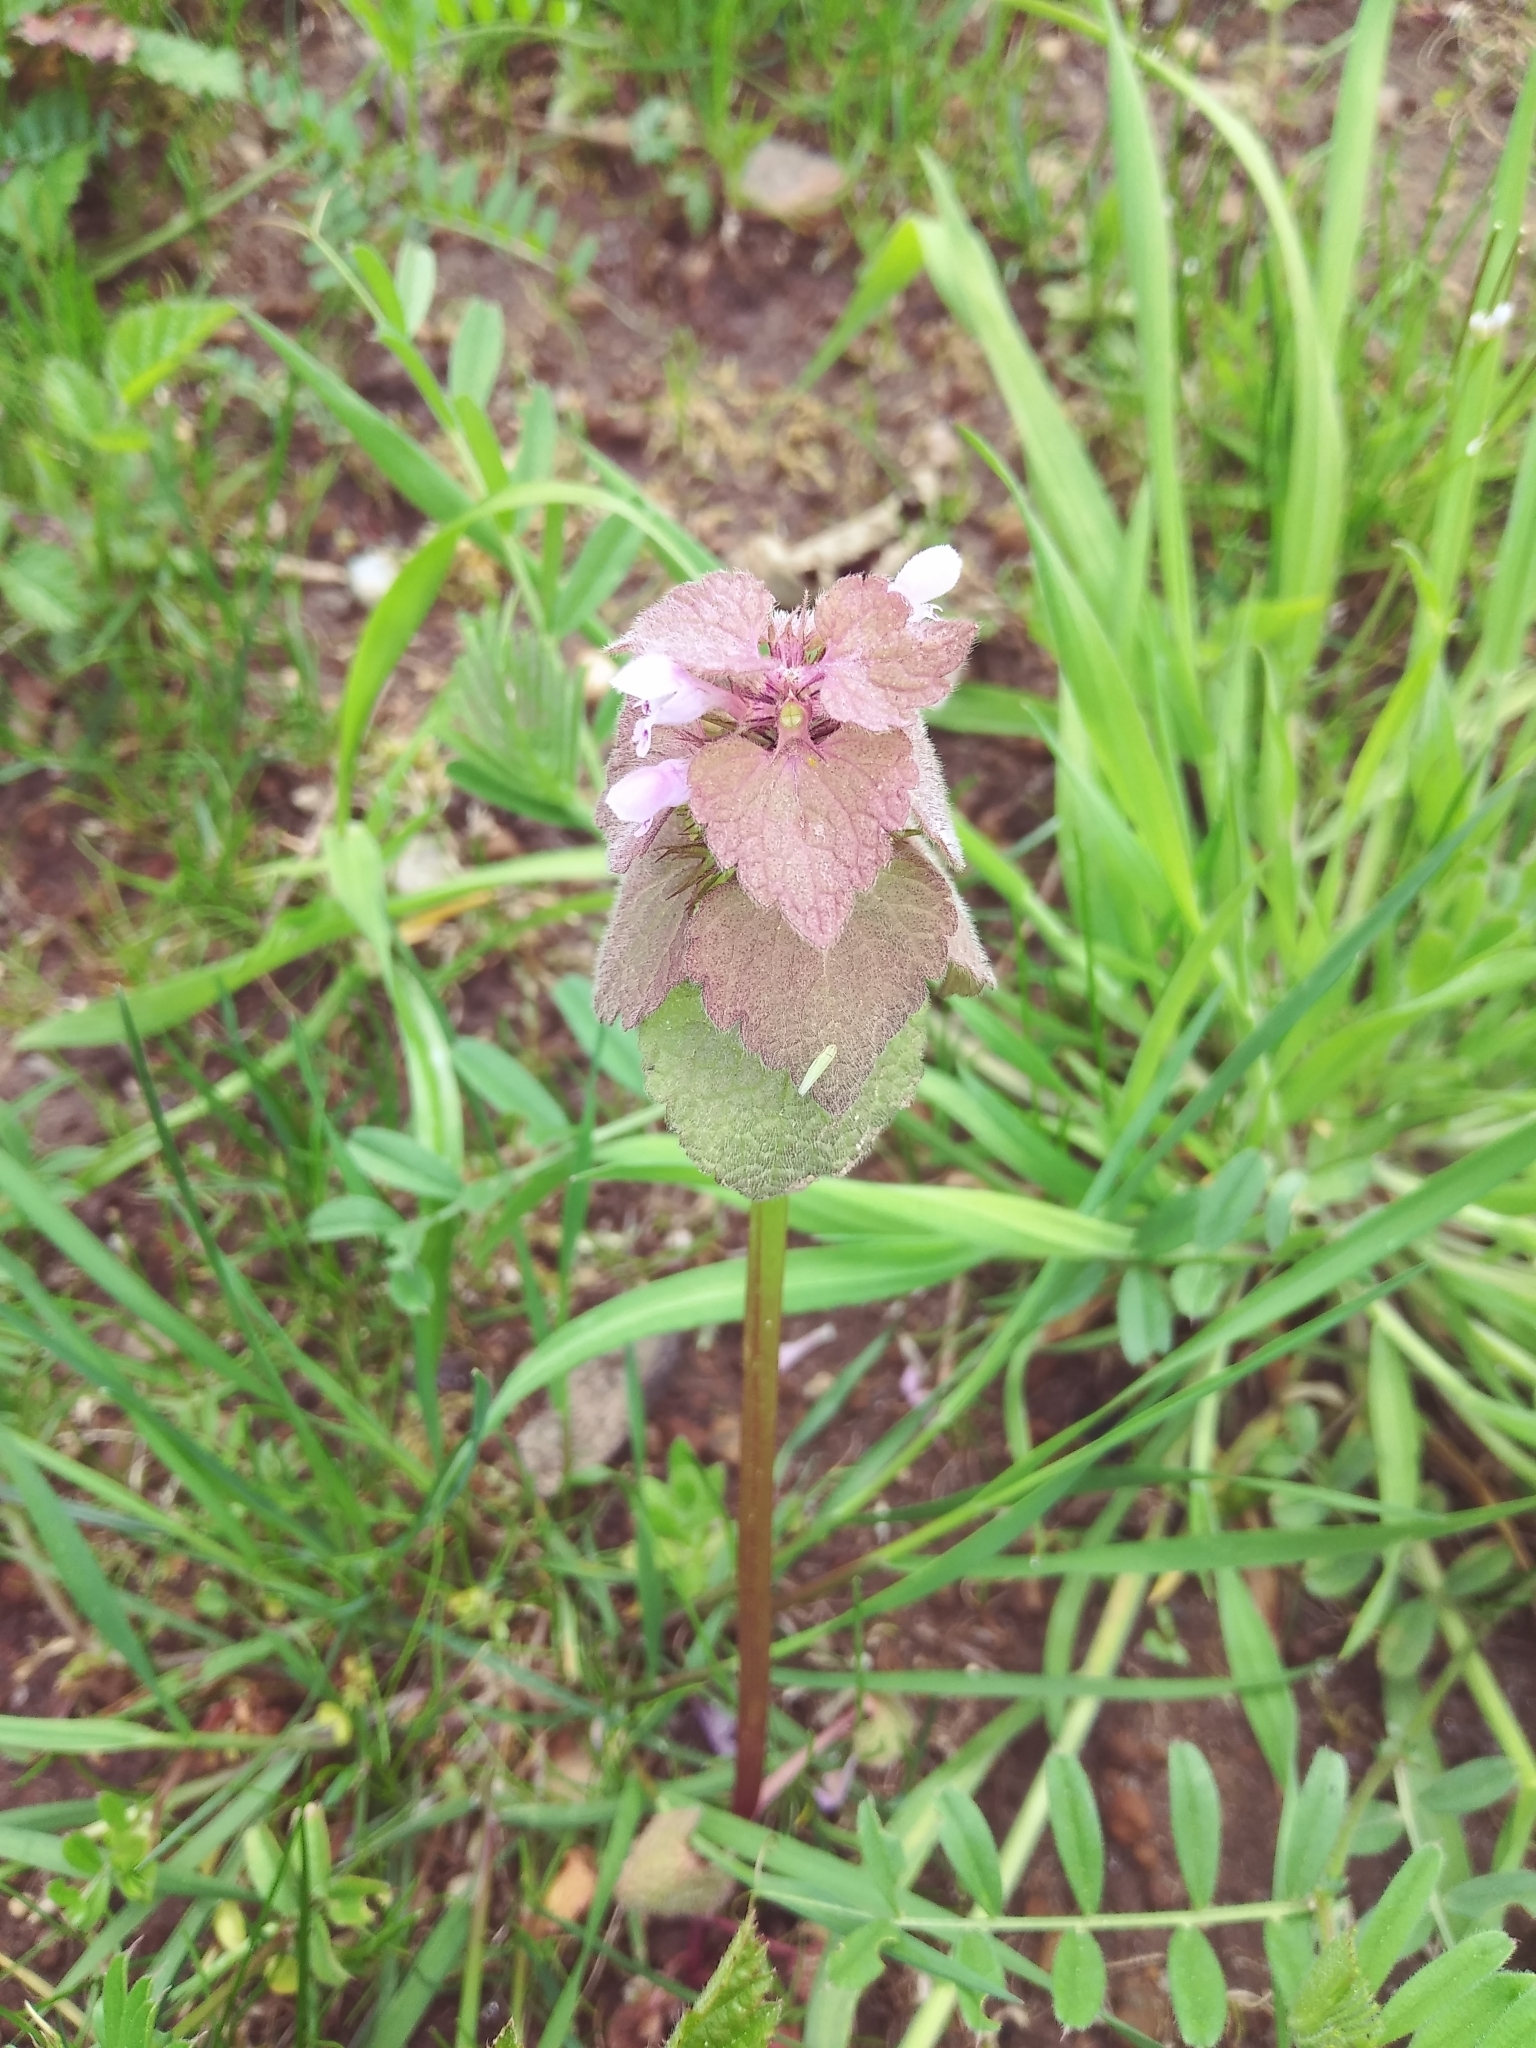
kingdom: Plantae
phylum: Tracheophyta
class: Magnoliopsida
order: Lamiales
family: Lamiaceae
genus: Lamium
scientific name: Lamium purpureum
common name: Red dead-nettle
